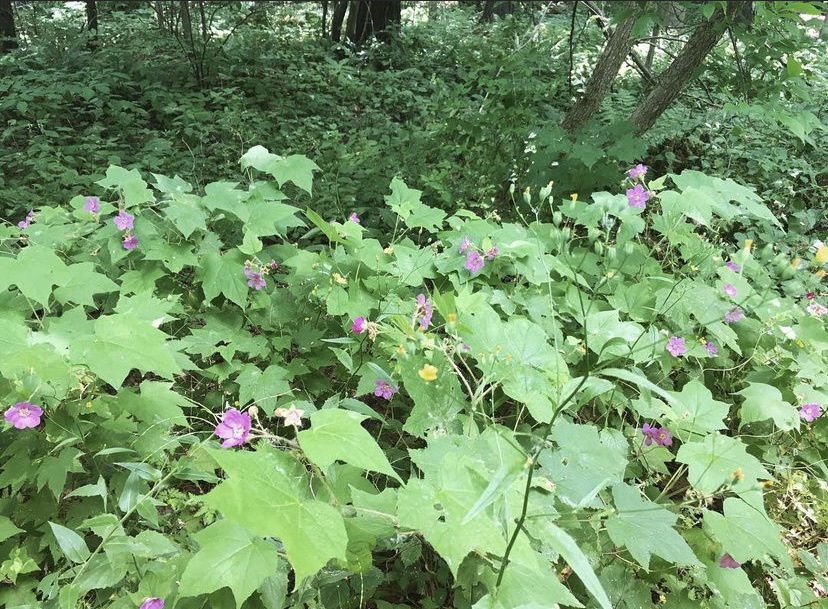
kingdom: Plantae
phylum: Tracheophyta
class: Magnoliopsida
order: Rosales
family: Rosaceae
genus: Rubus
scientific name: Rubus odoratus
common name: Purple-flowered raspberry
